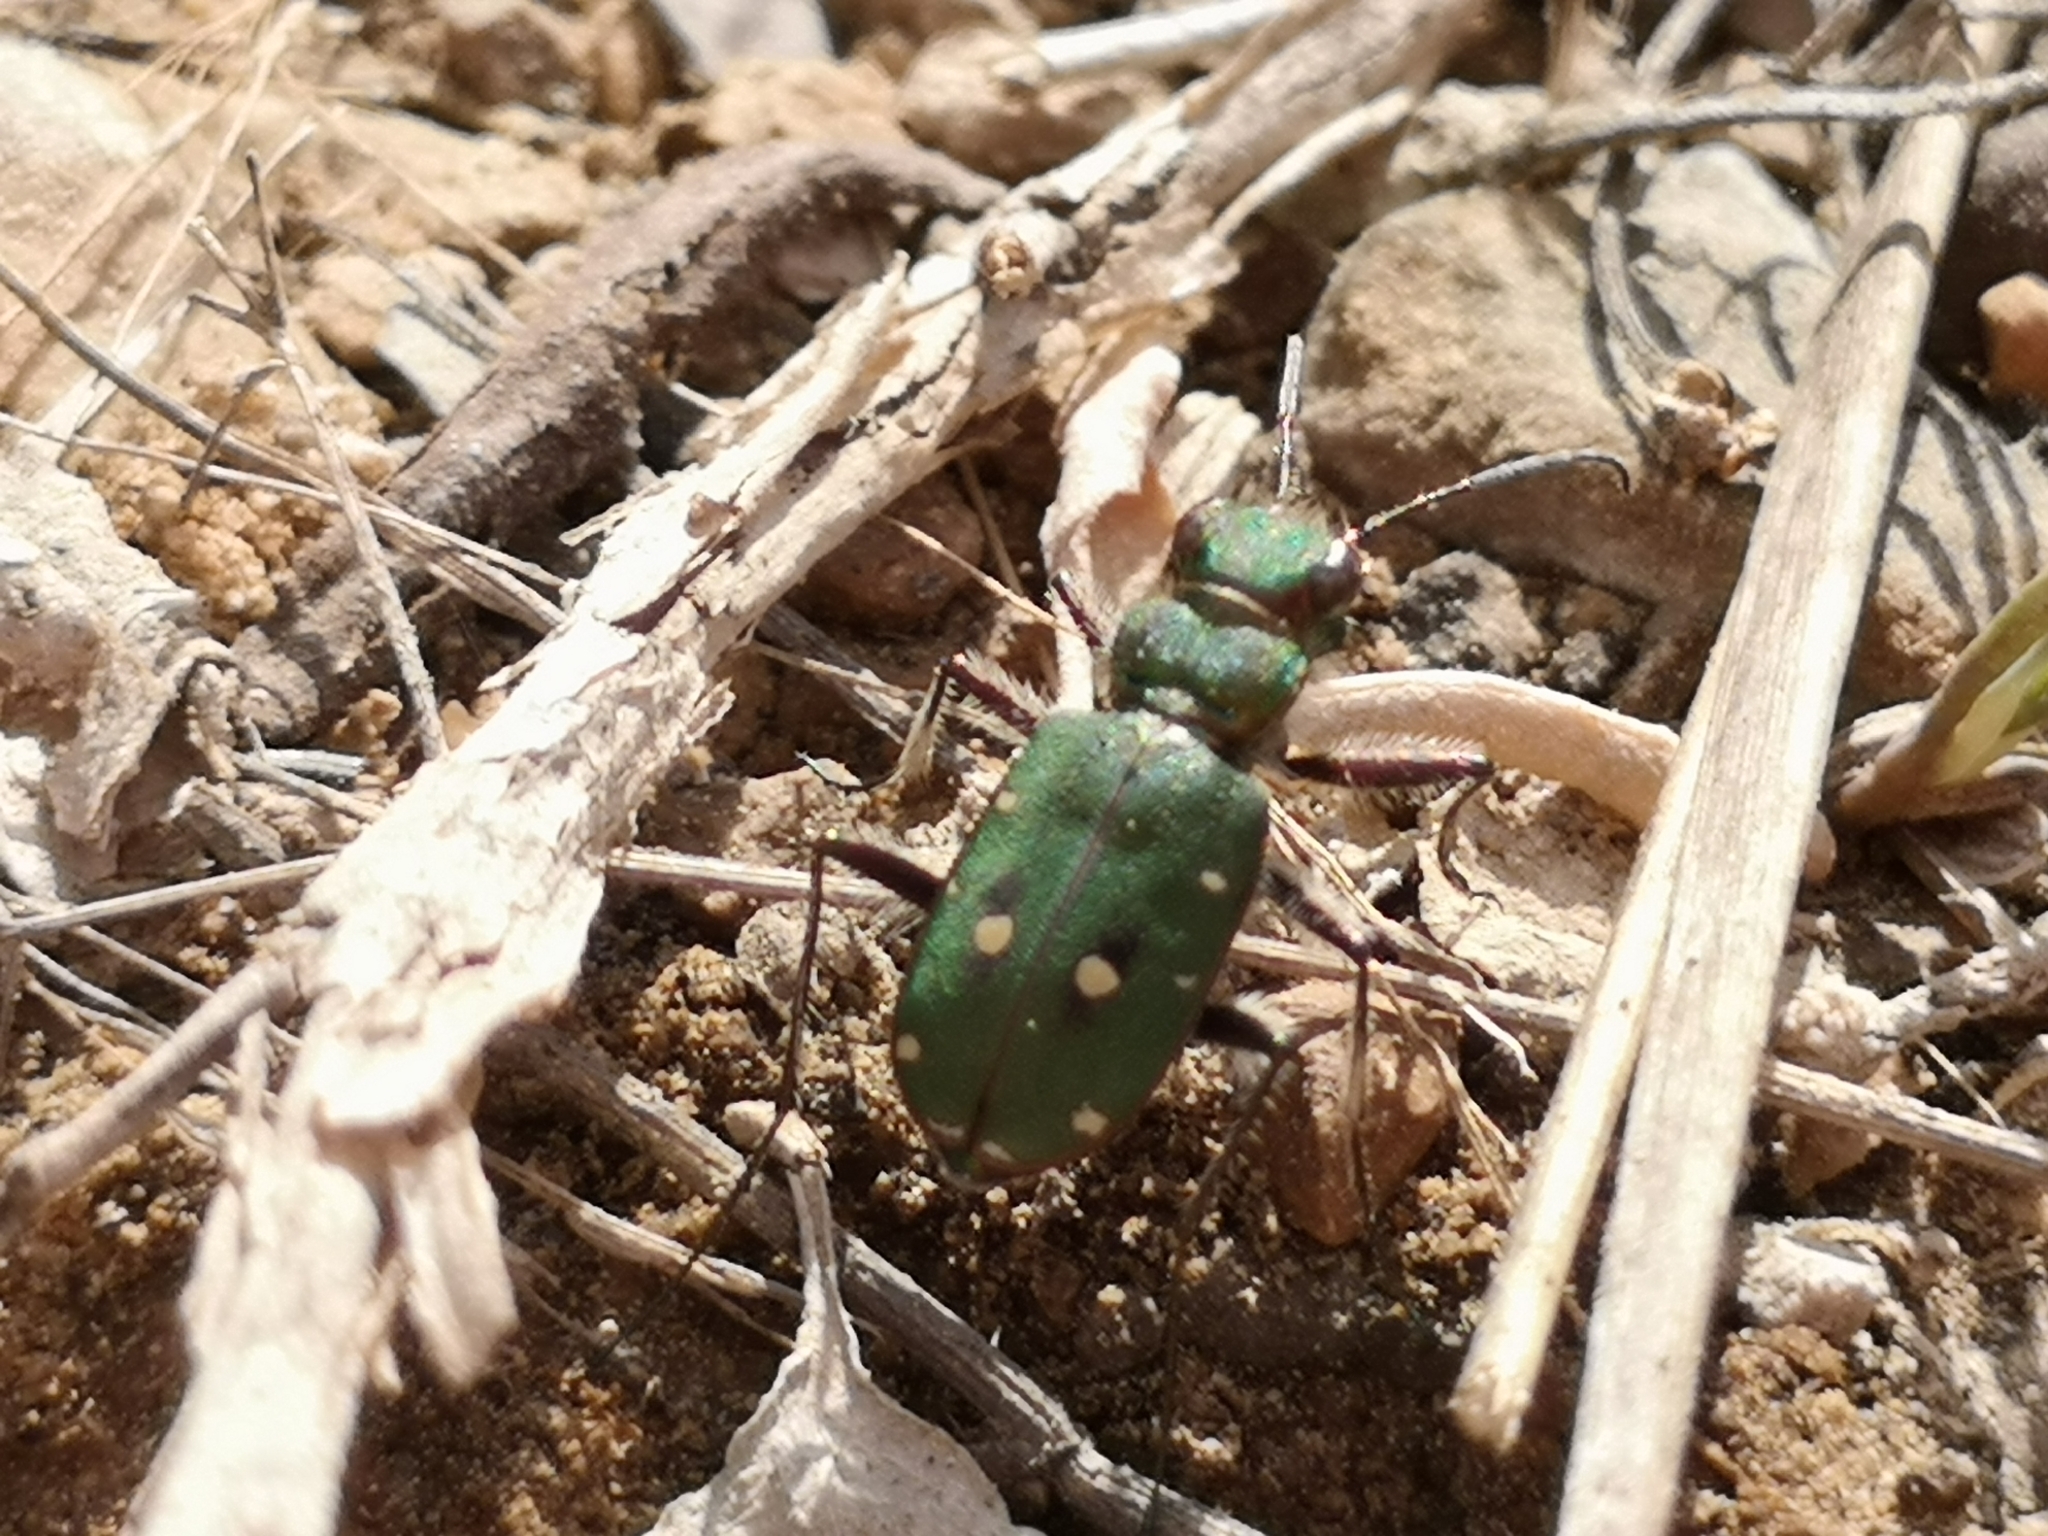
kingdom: Animalia
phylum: Arthropoda
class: Insecta
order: Coleoptera
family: Carabidae
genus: Cicindela
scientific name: Cicindela campestris
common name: Common tiger beetle
